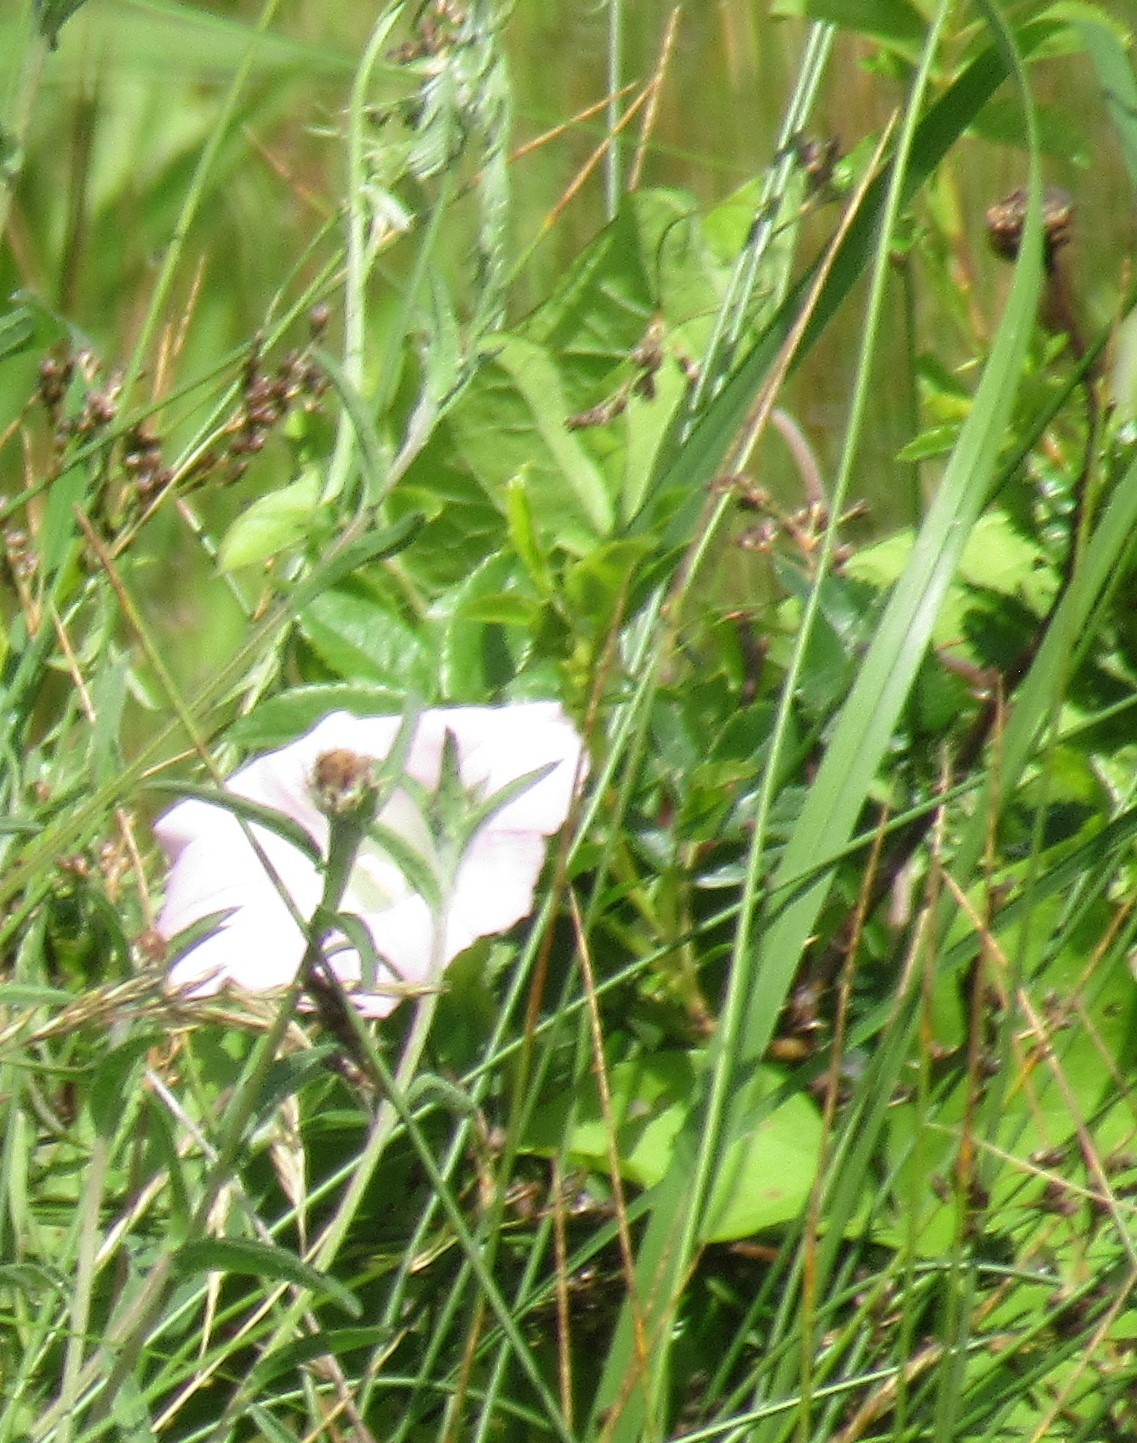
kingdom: Plantae
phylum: Tracheophyta
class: Magnoliopsida
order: Solanales
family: Convolvulaceae
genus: Calystegia
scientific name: Calystegia sepium
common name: Hedge bindweed
